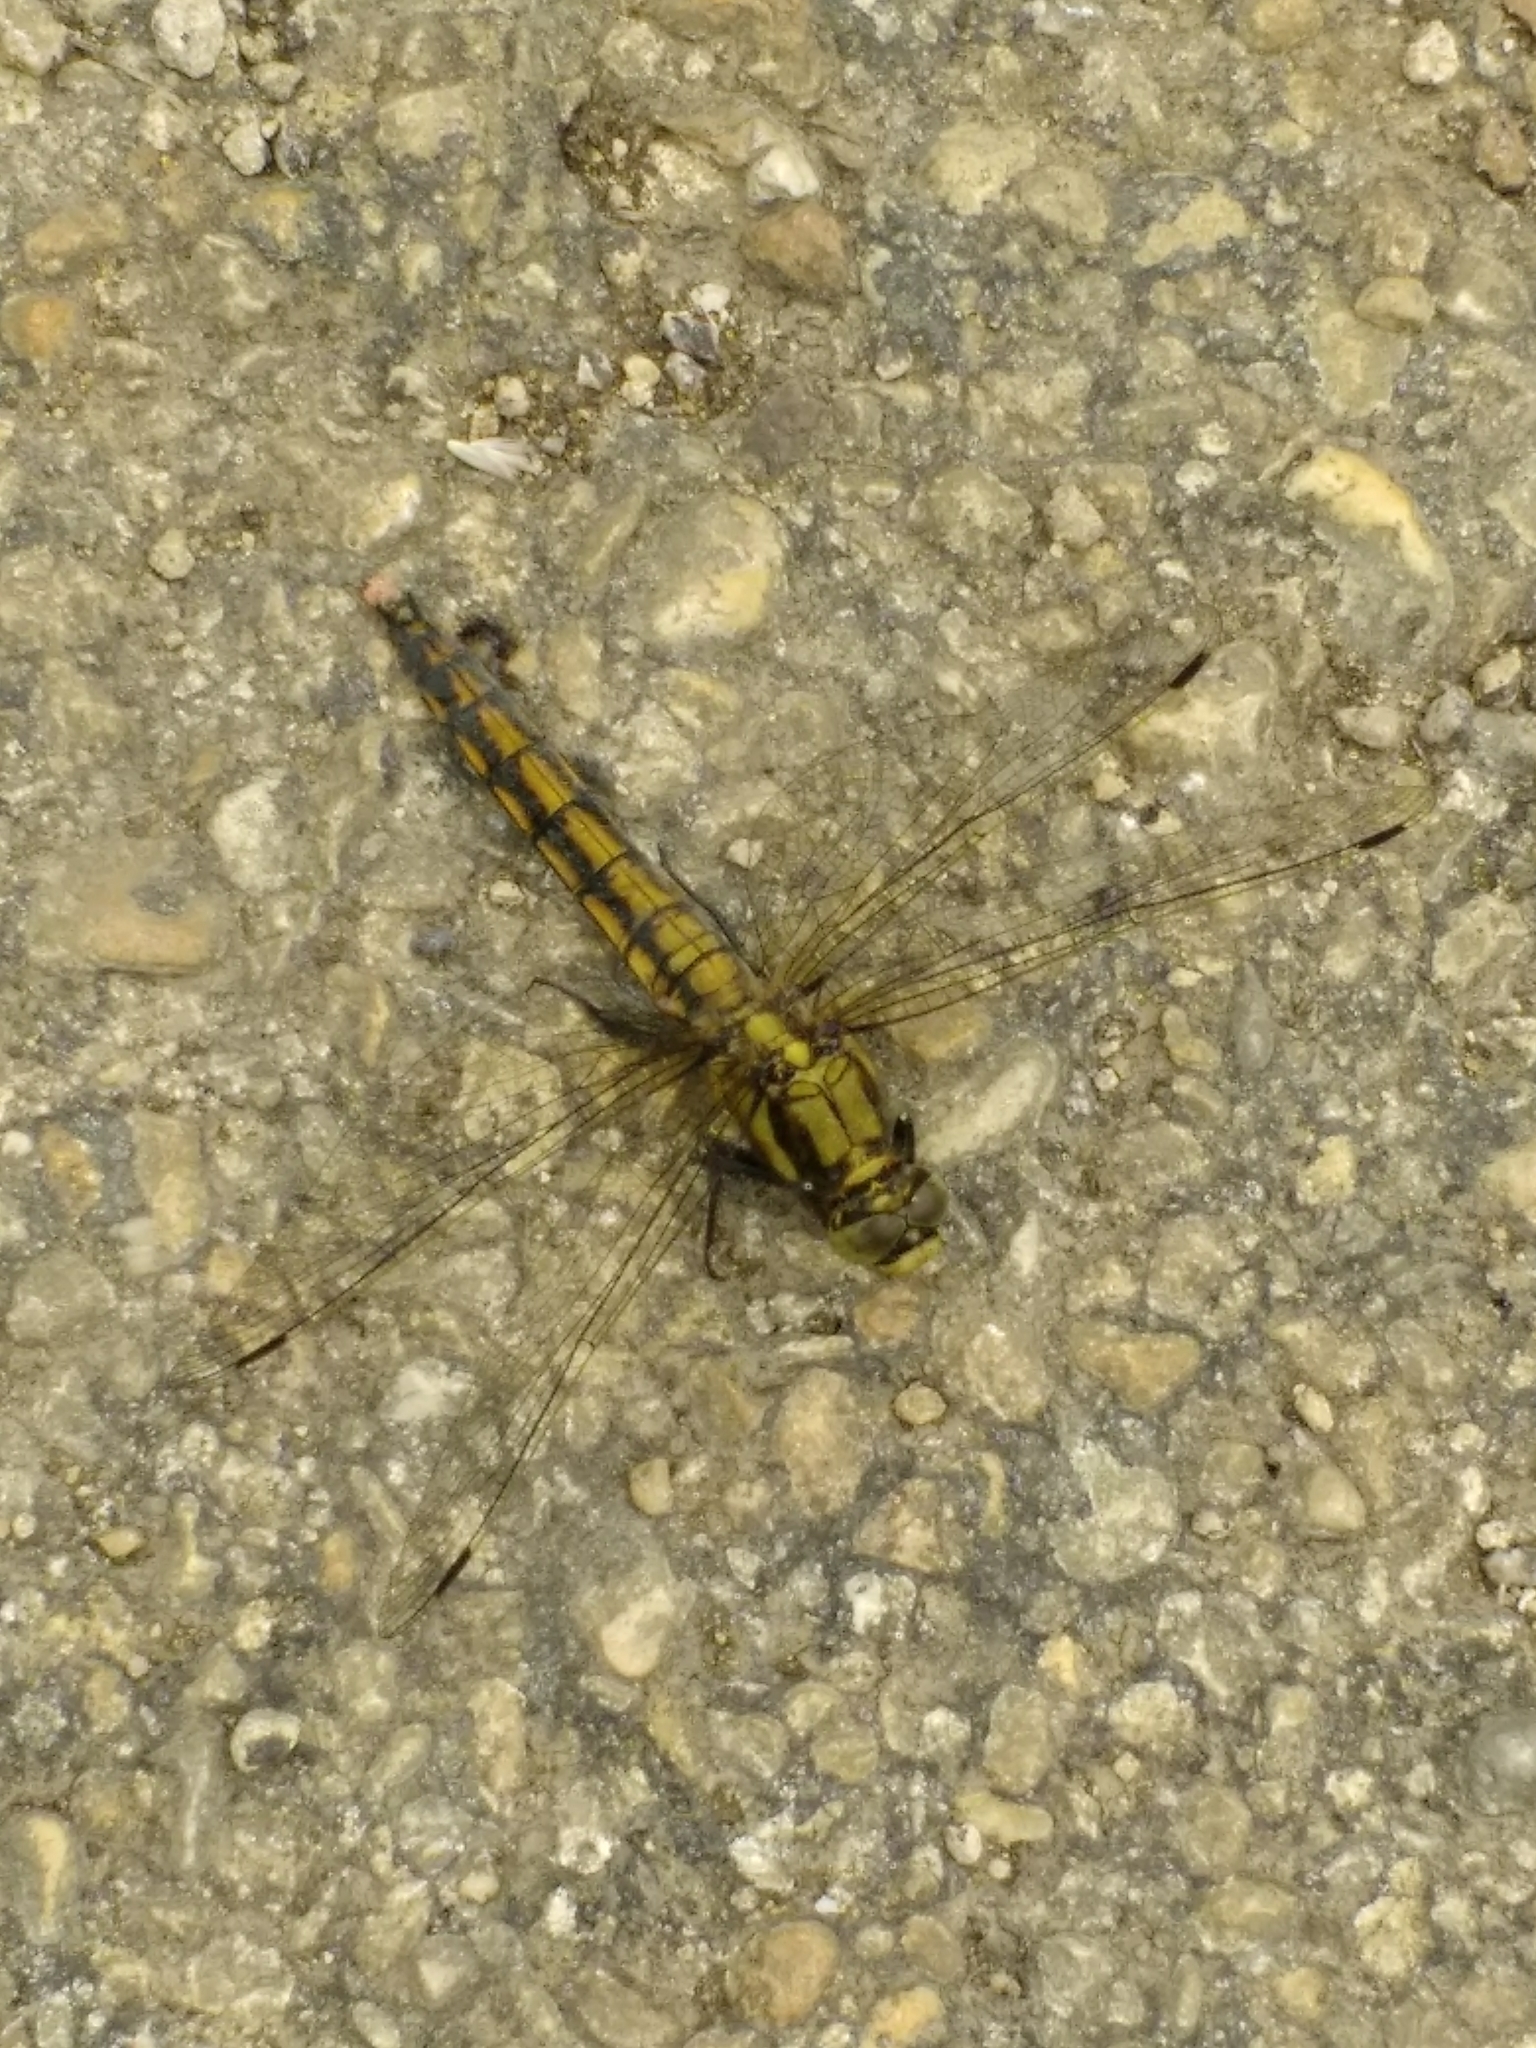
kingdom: Animalia
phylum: Arthropoda
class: Insecta
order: Odonata
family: Libellulidae
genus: Orthetrum
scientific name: Orthetrum cancellatum
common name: Black-tailed skimmer
